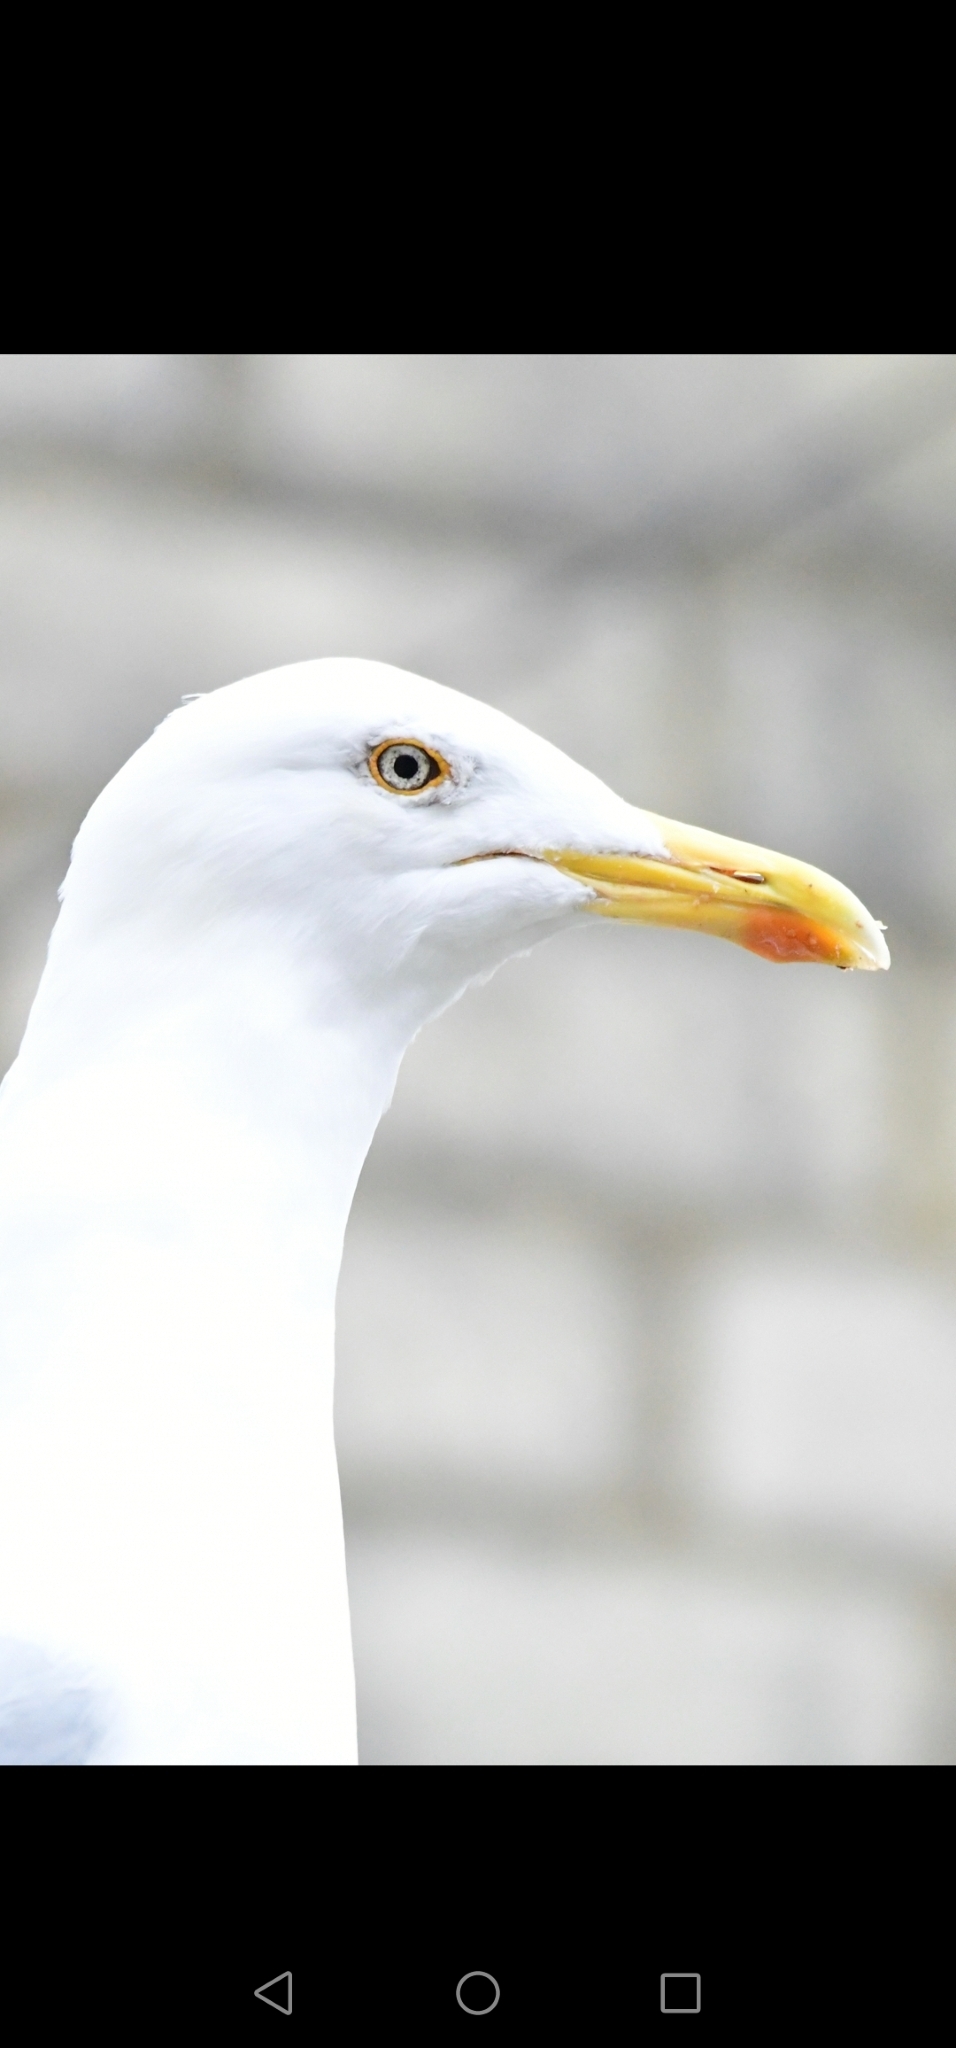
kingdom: Animalia
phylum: Chordata
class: Aves
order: Charadriiformes
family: Laridae
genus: Larus
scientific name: Larus argentatus
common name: Herring gull
